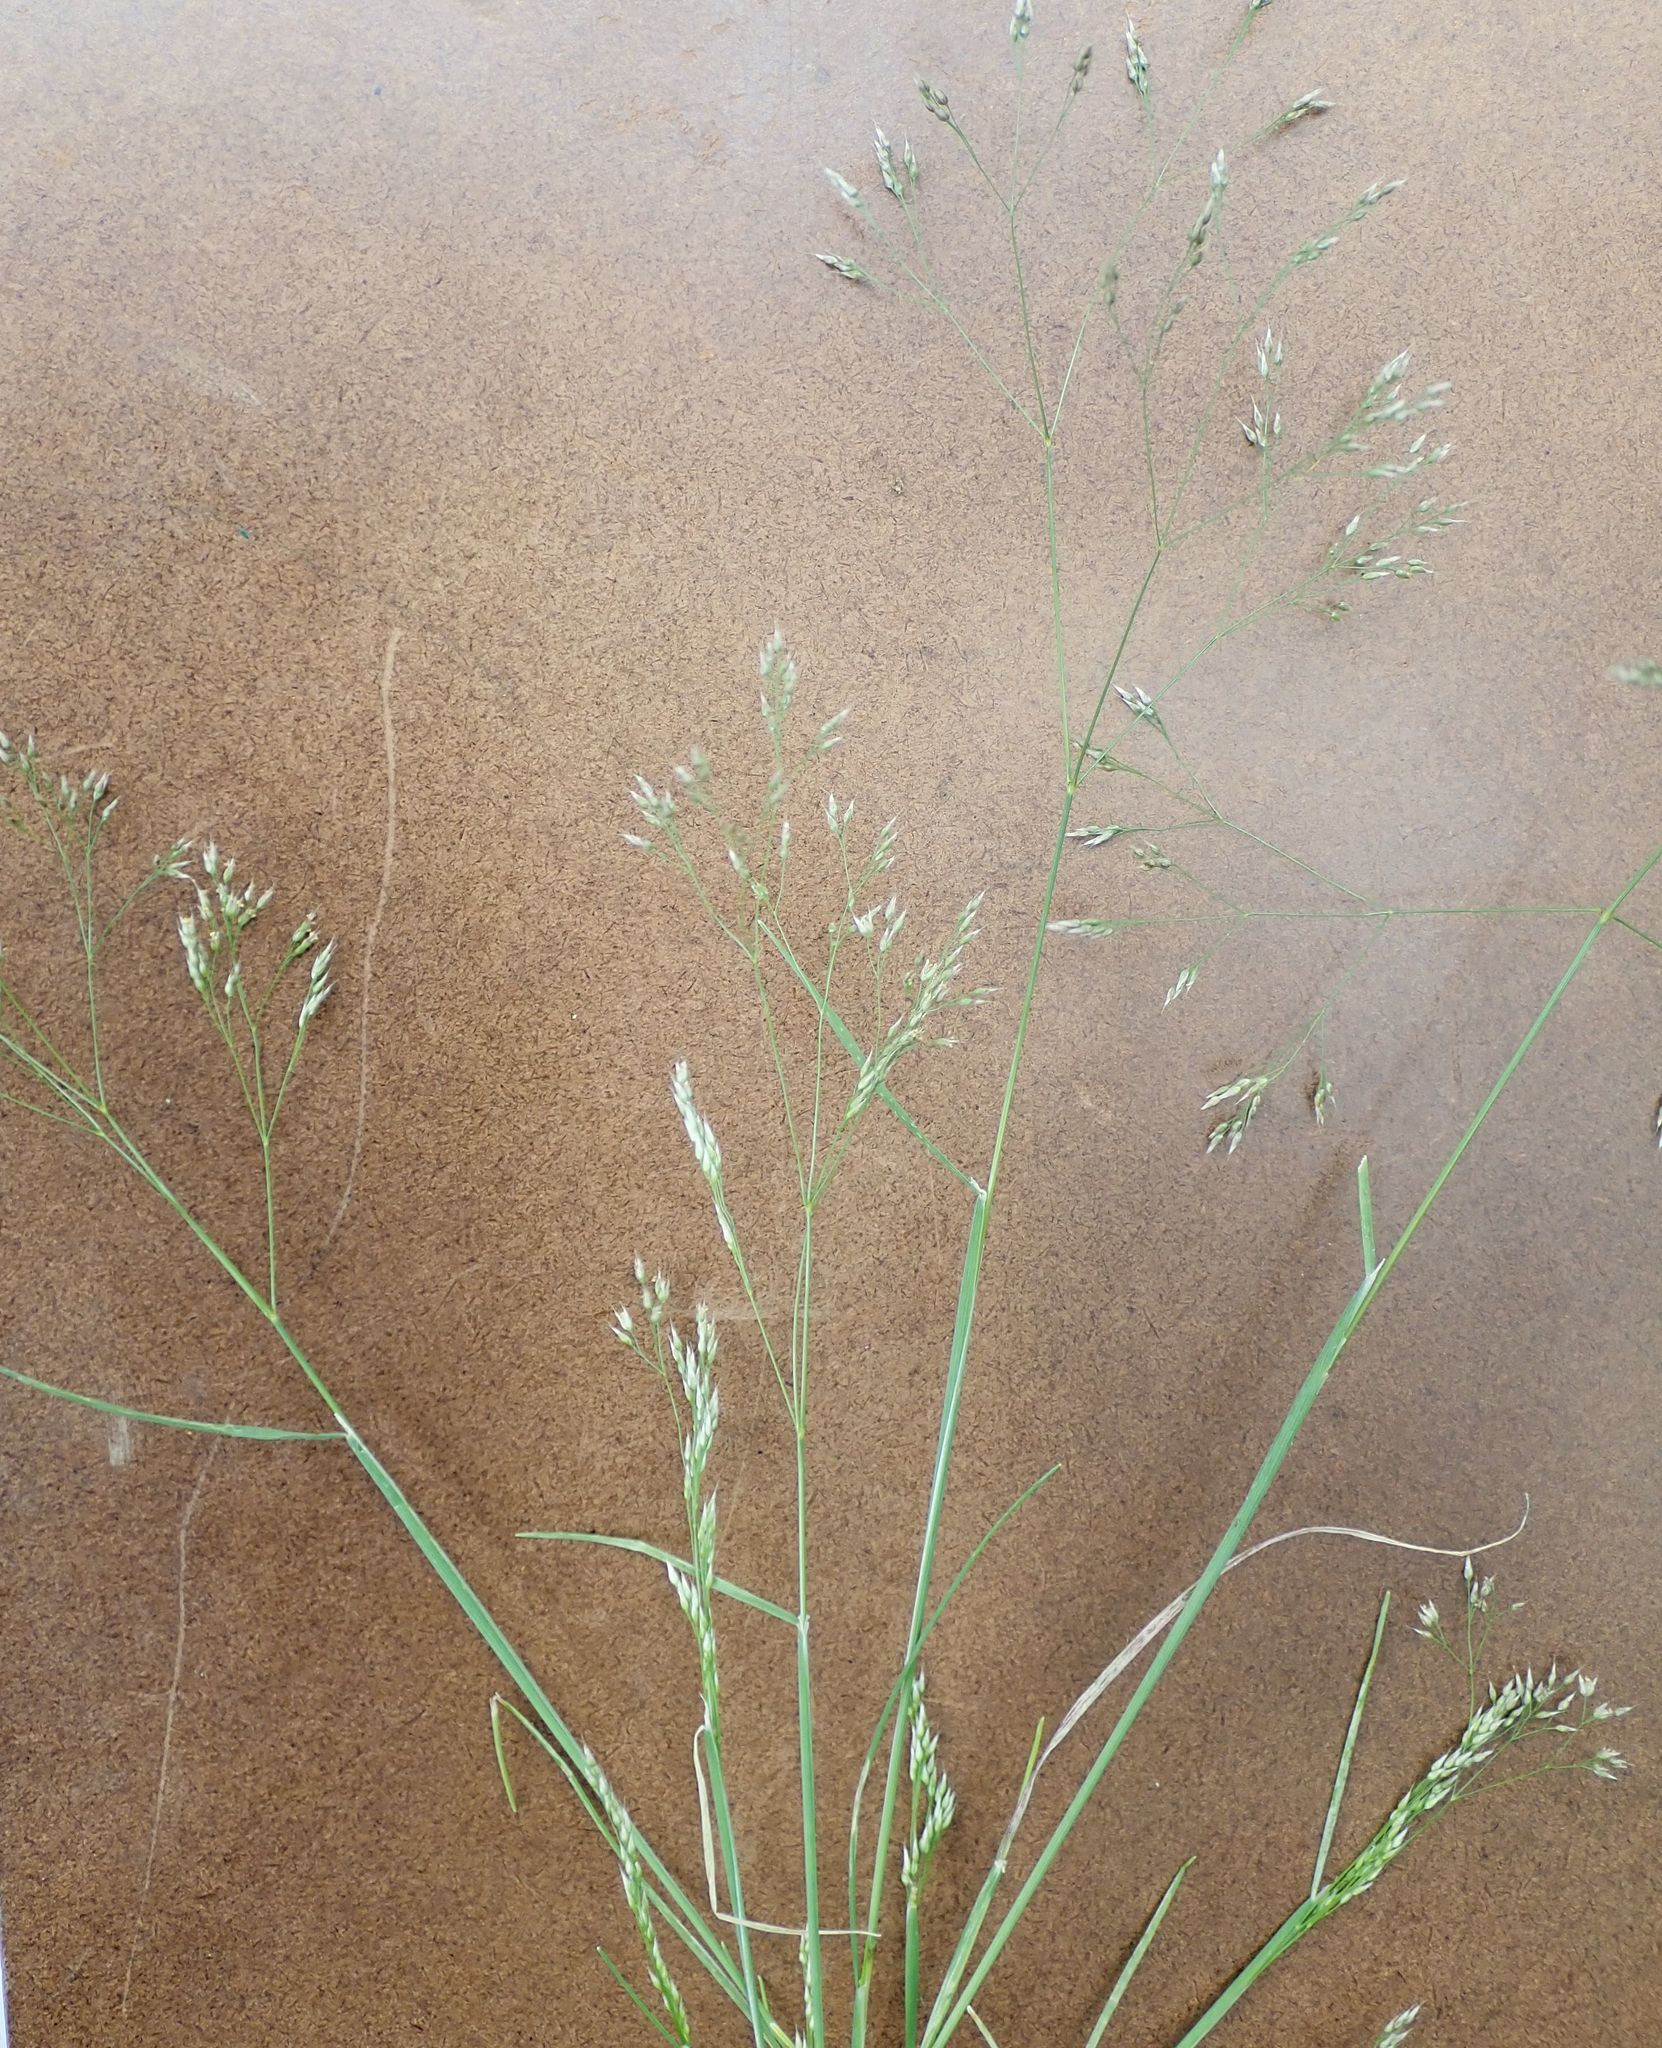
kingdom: Plantae
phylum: Tracheophyta
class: Liliopsida
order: Poales
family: Poaceae
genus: Aira
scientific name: Aira caryophyllea
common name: Silver hairgrass
